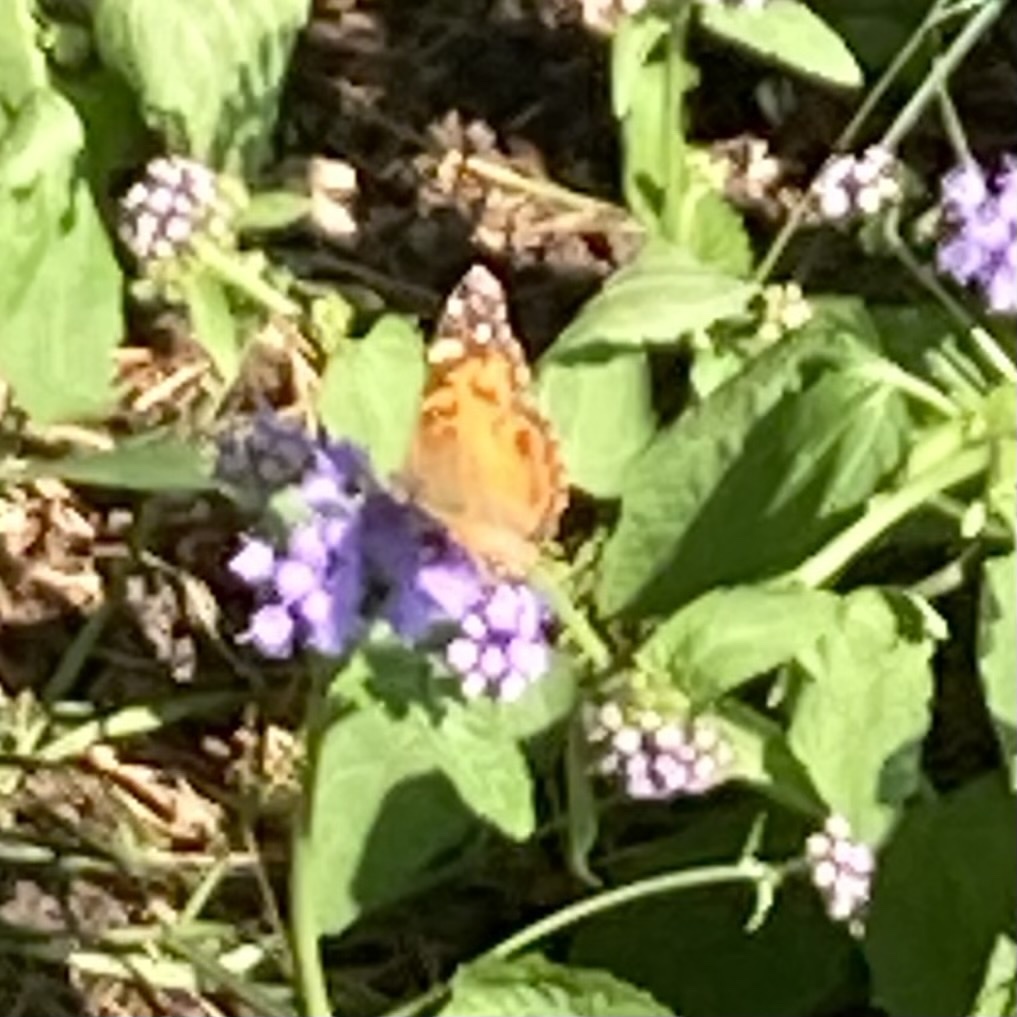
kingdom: Animalia
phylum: Arthropoda
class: Insecta
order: Lepidoptera
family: Nymphalidae
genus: Vanessa
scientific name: Vanessa virginiensis
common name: American lady
